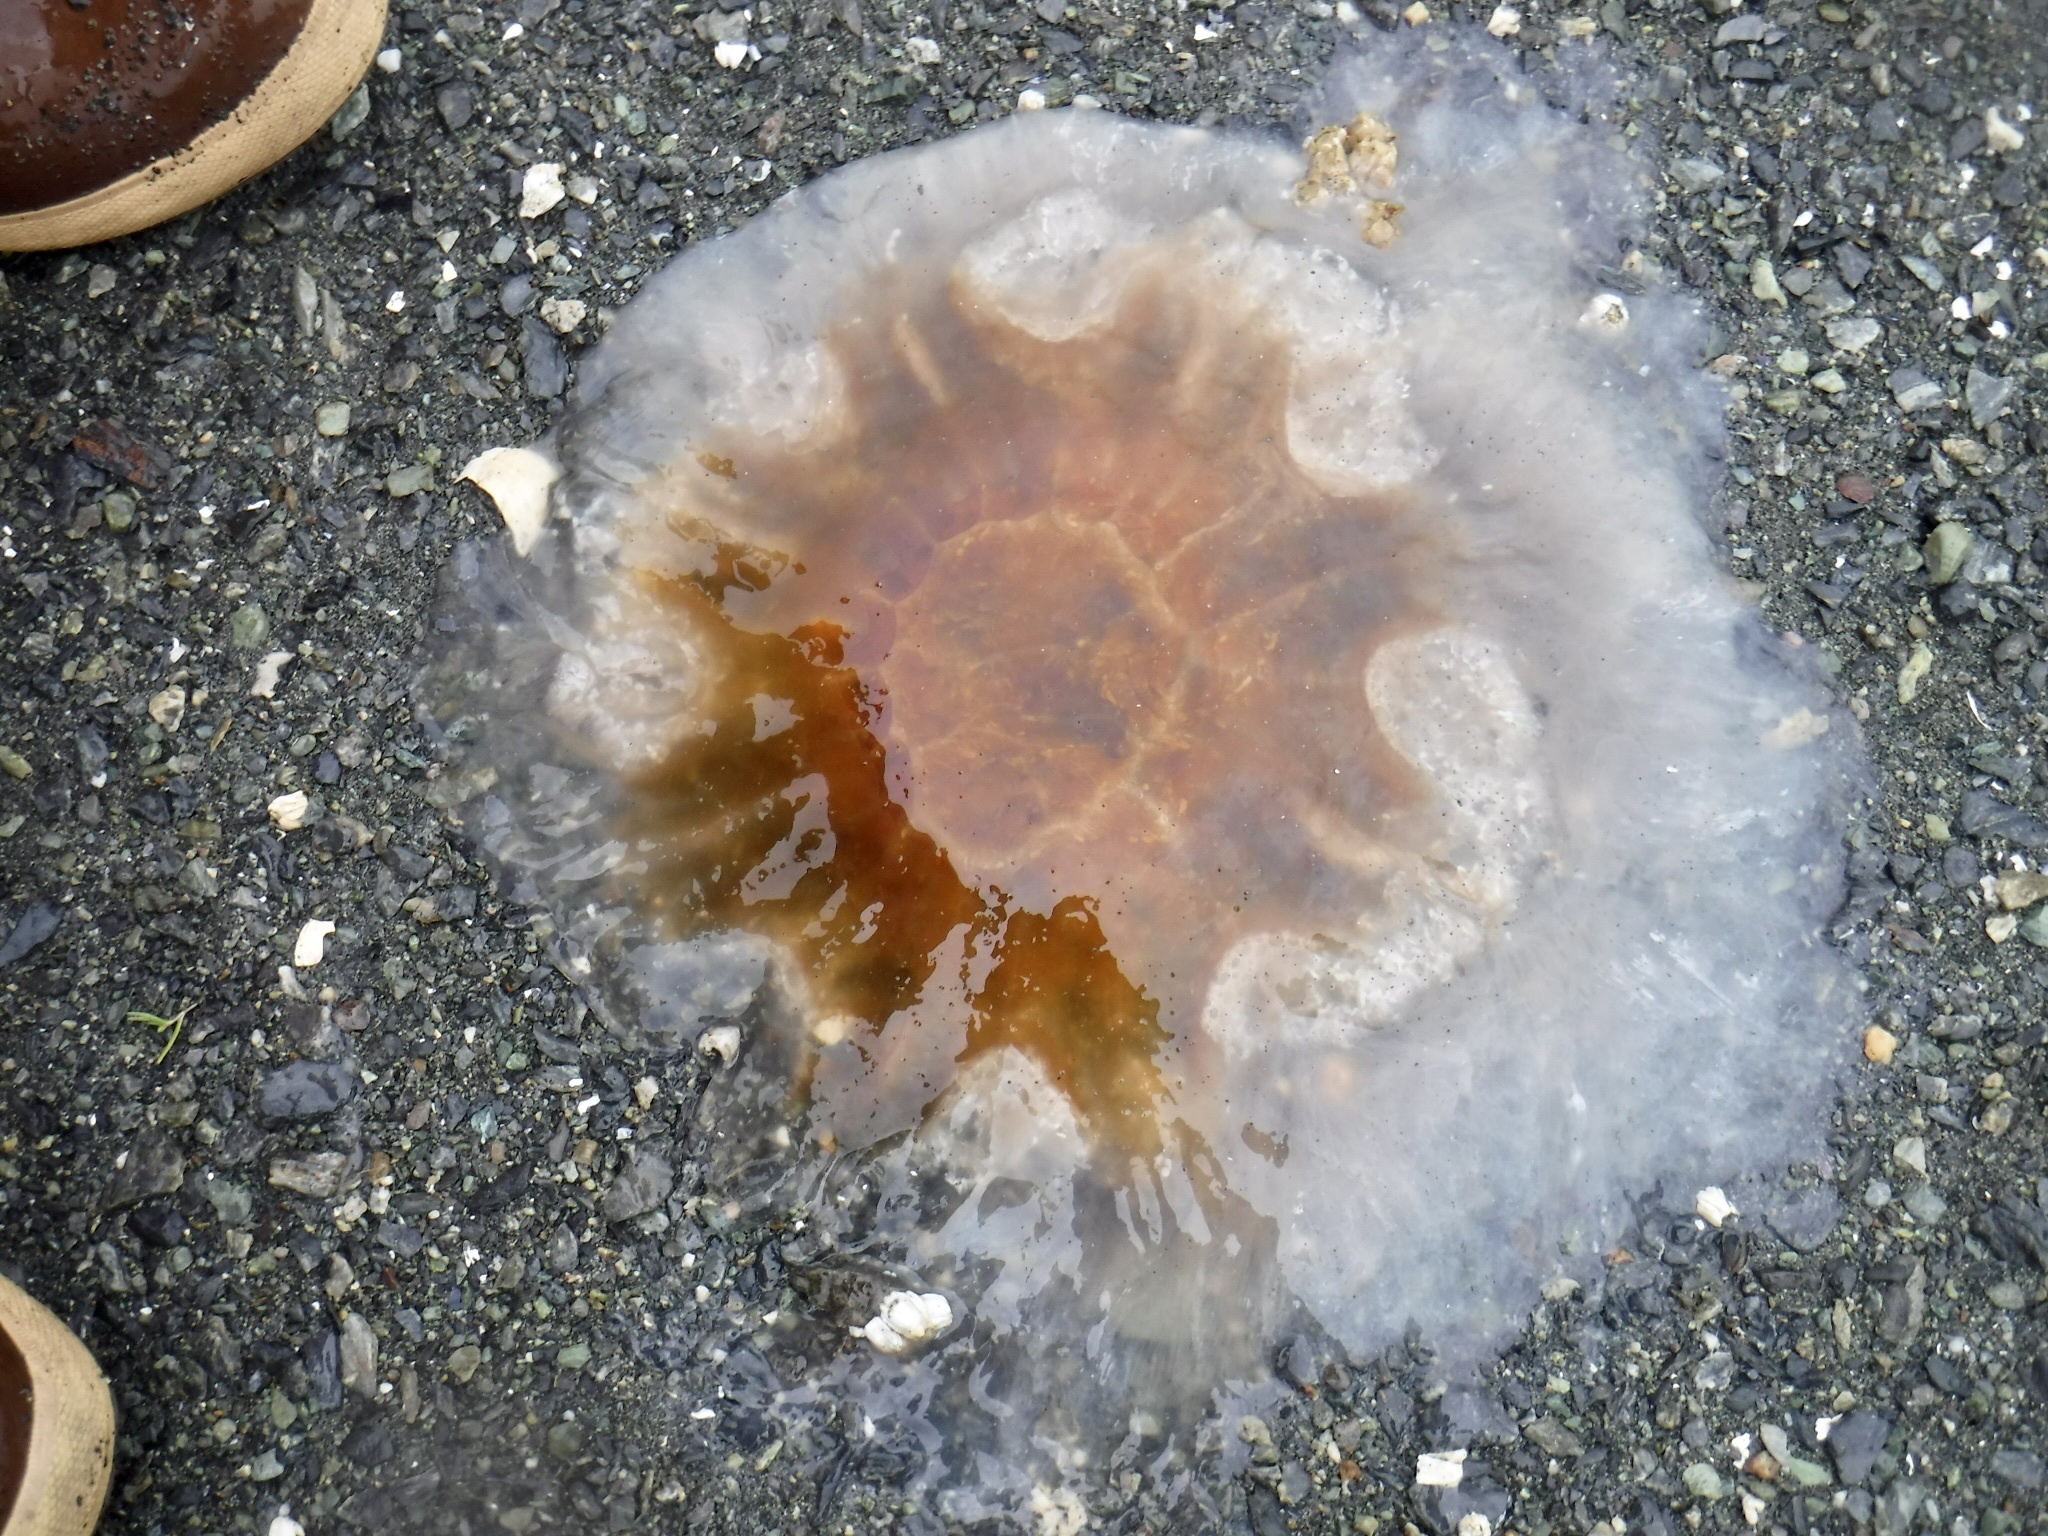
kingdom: Animalia
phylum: Cnidaria
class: Scyphozoa
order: Semaeostomeae
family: Cyaneidae
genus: Cyanea
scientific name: Cyanea ferruginea
